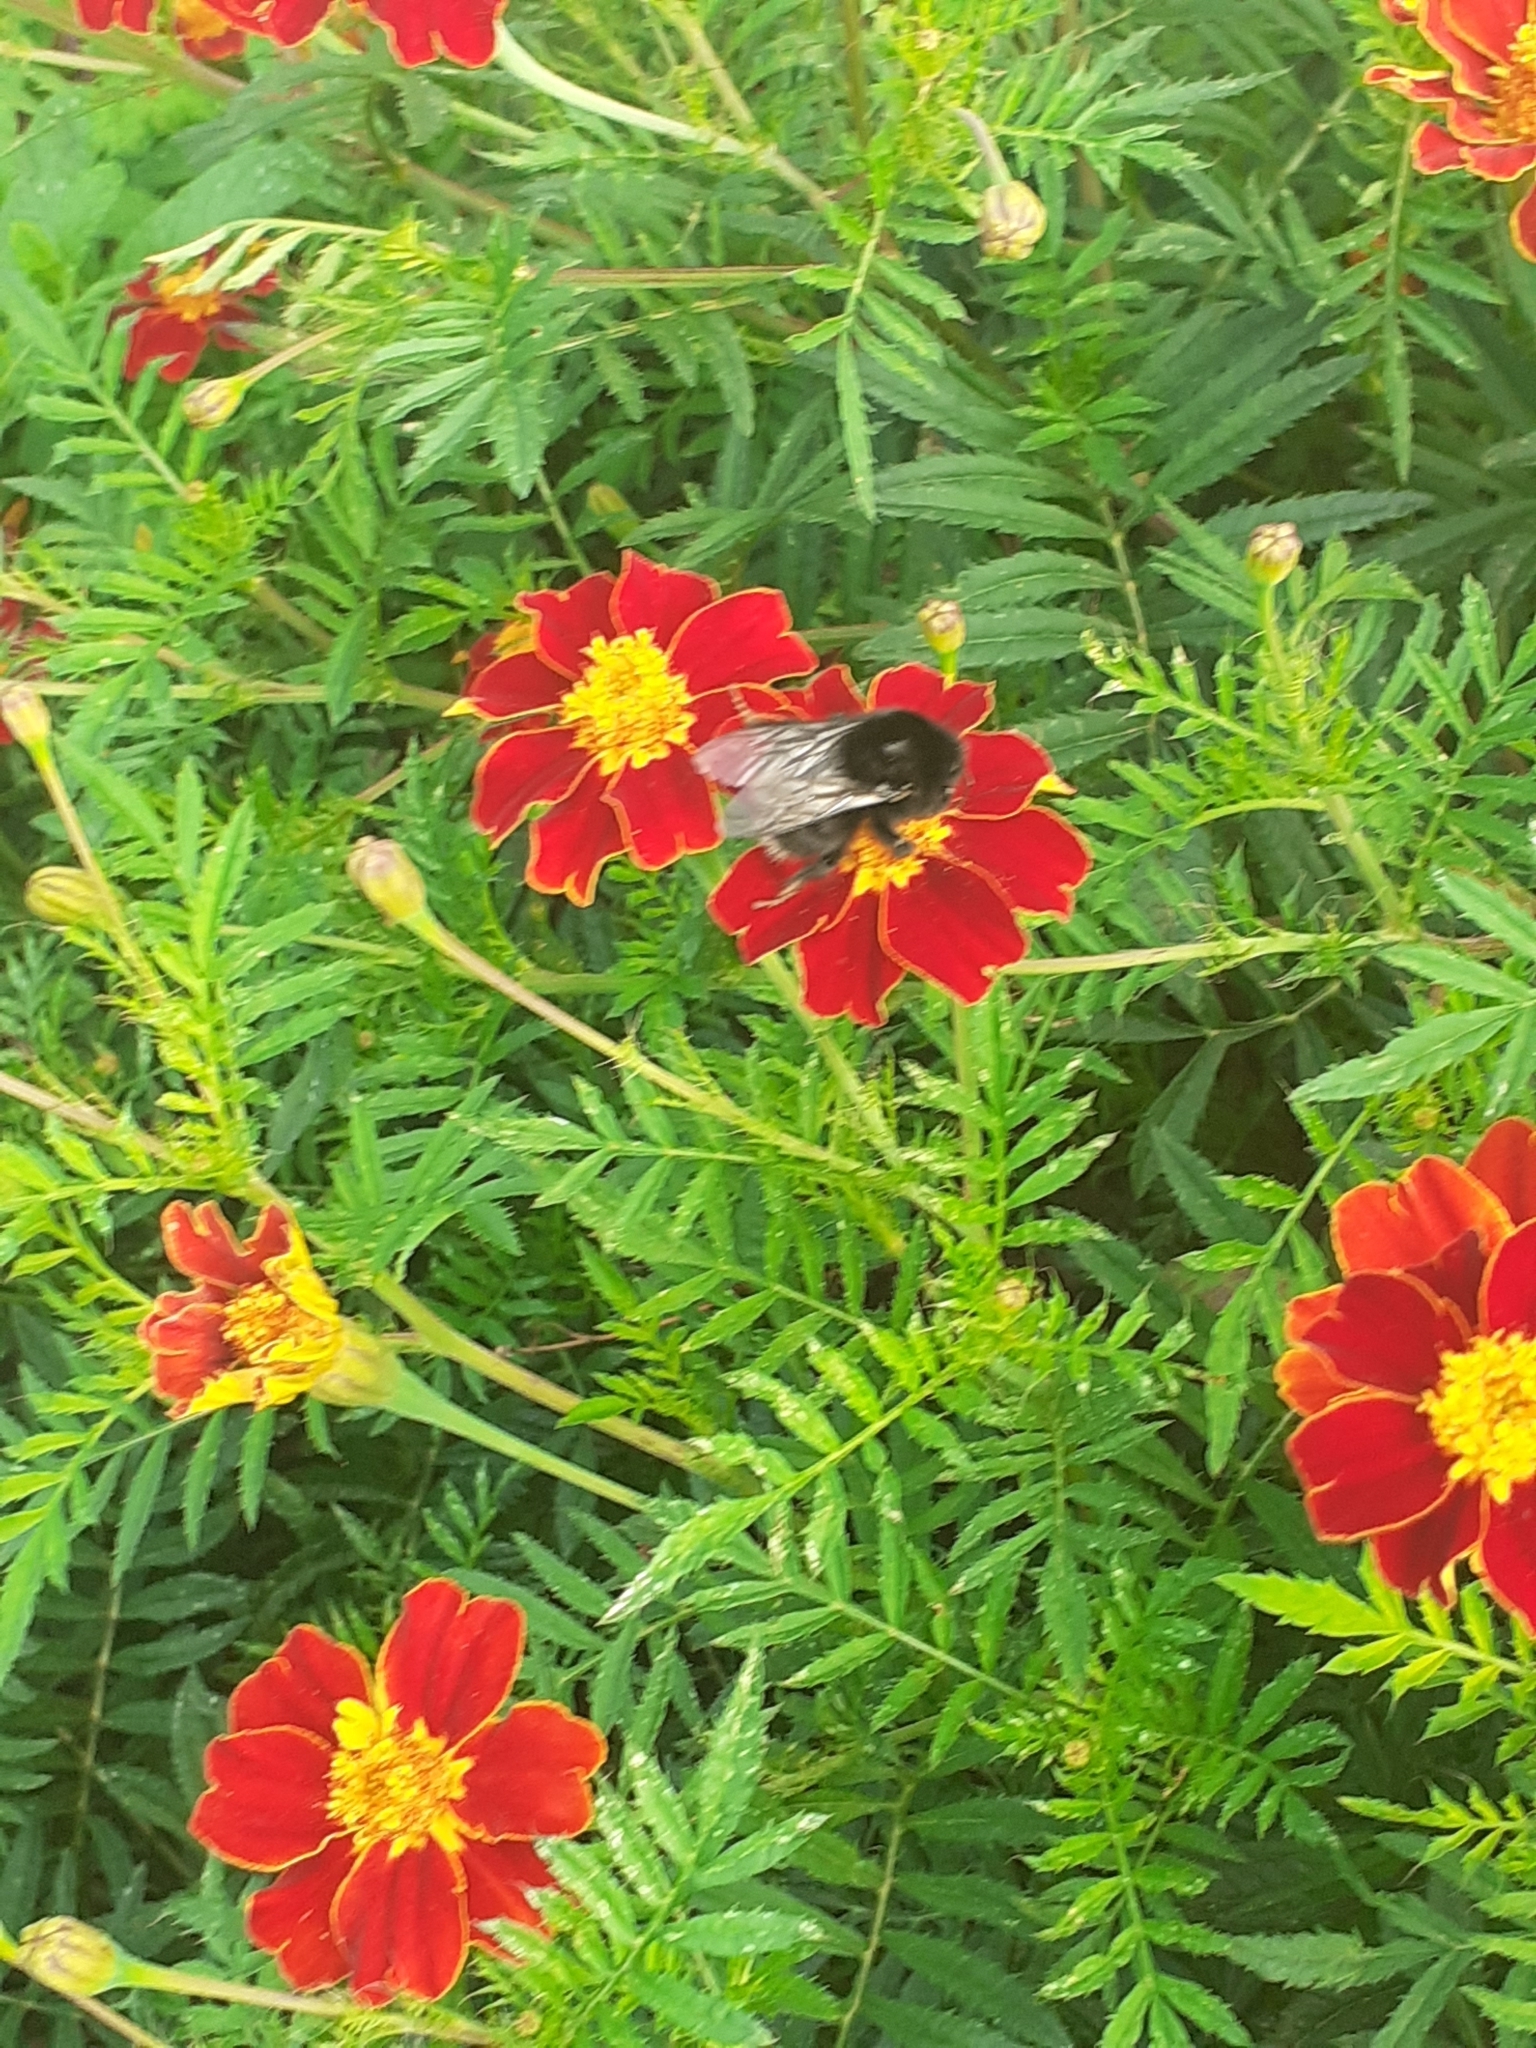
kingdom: Animalia
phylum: Arthropoda
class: Insecta
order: Hymenoptera
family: Apidae
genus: Bombus
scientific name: Bombus terrestris
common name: Buff-tailed bumblebee
